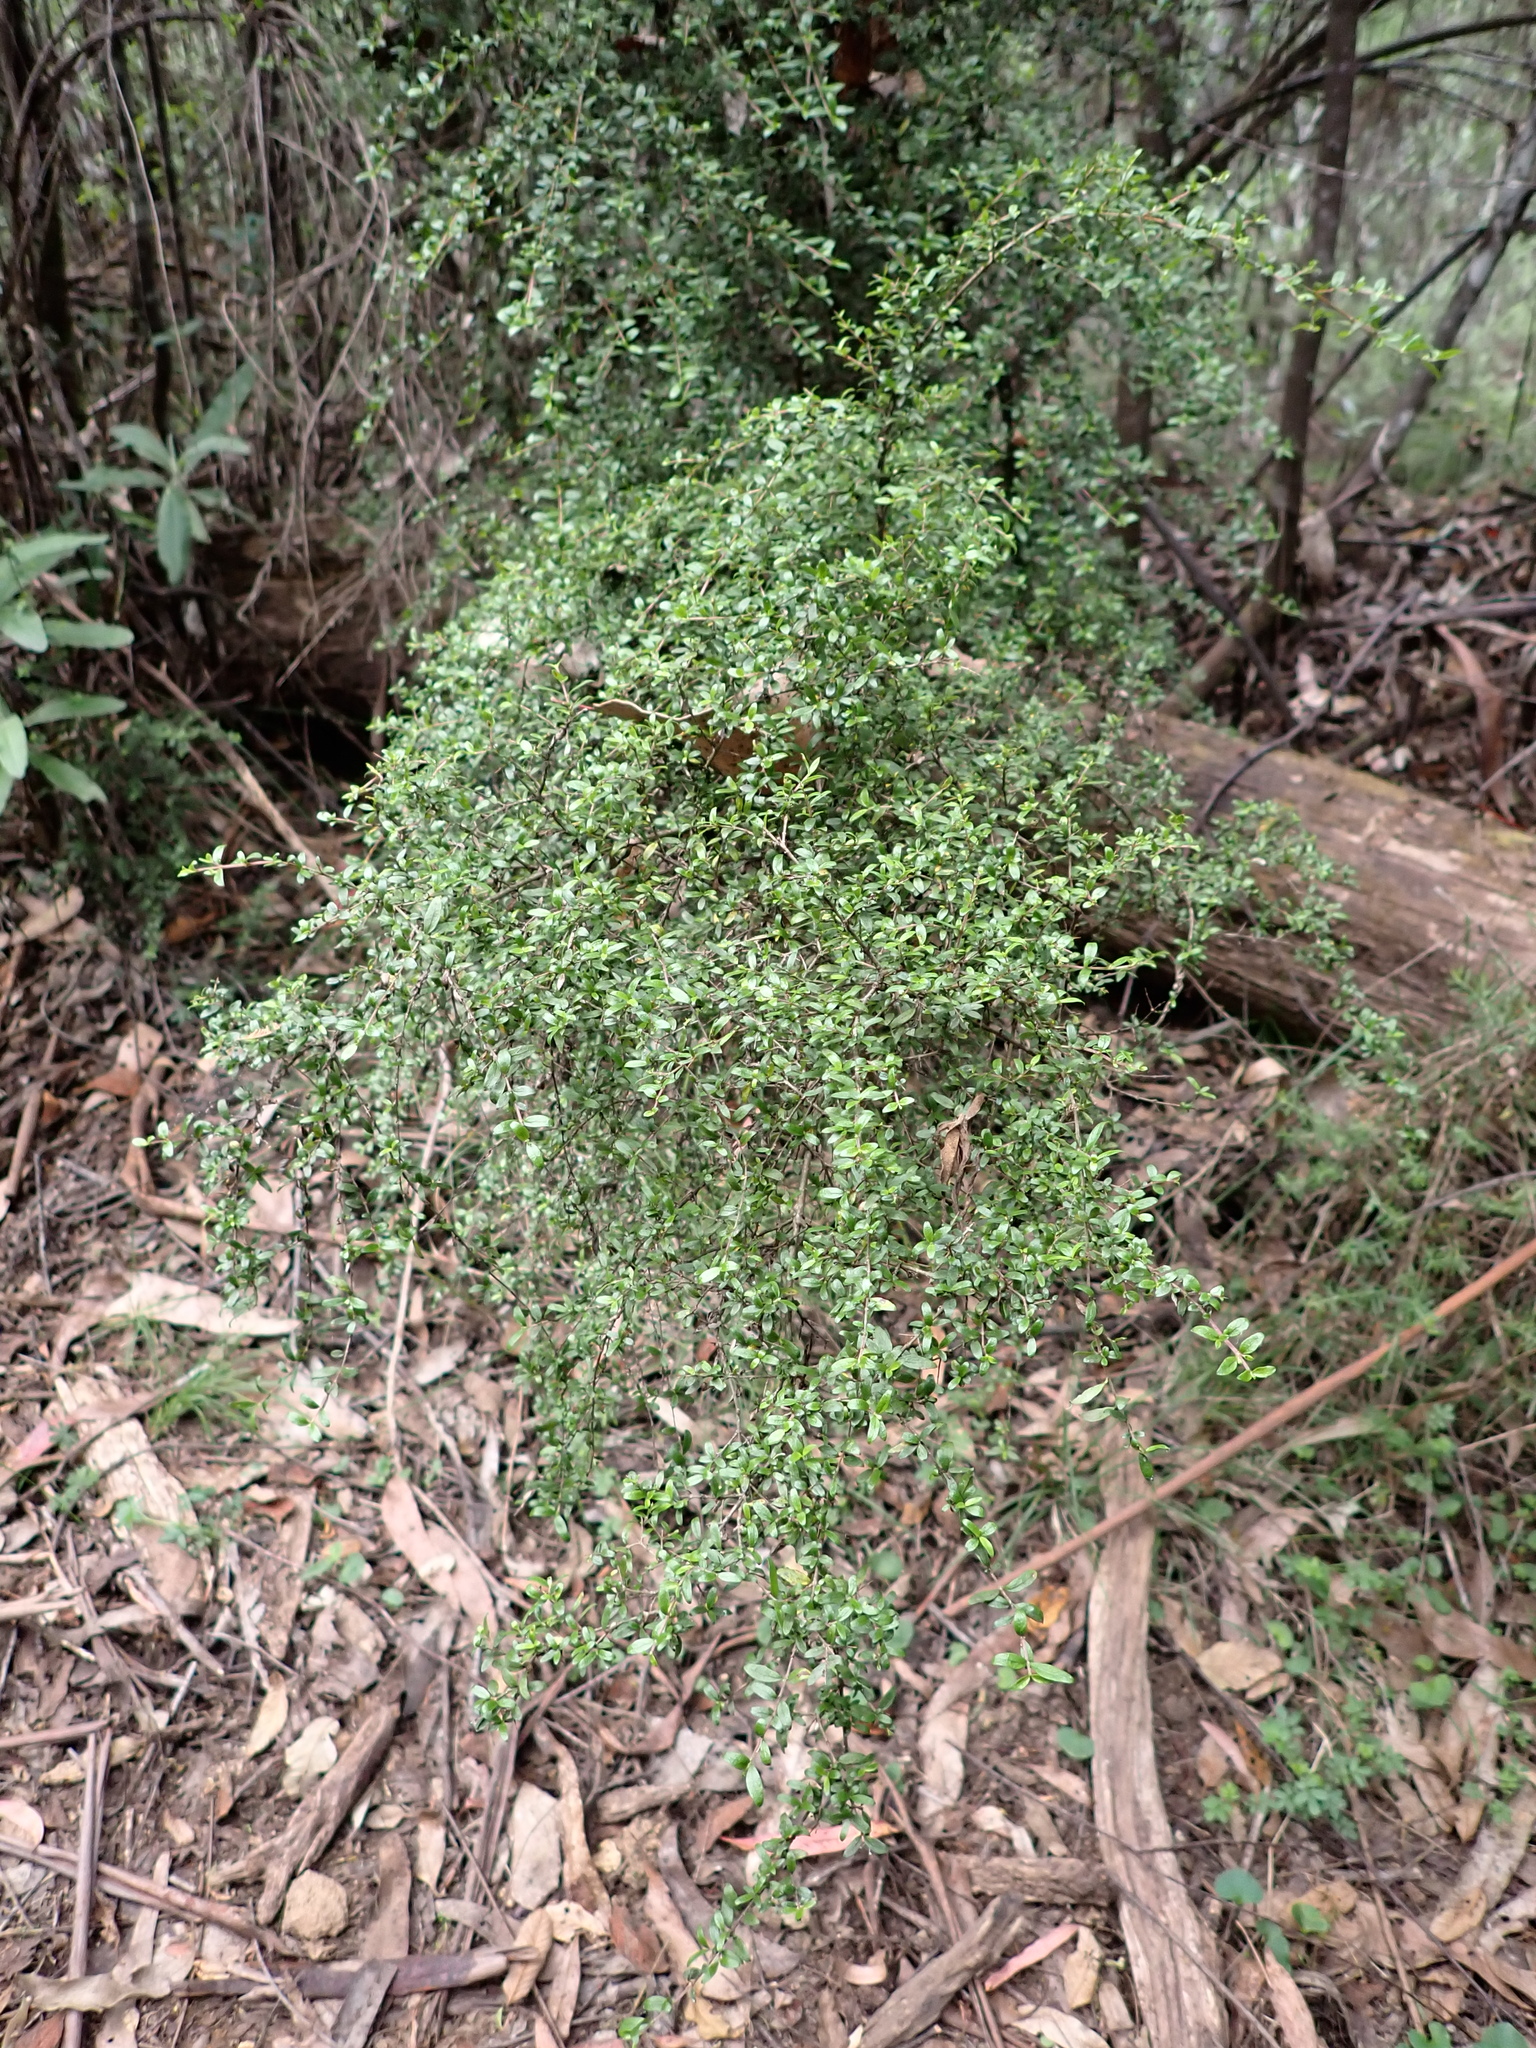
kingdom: Plantae
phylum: Tracheophyta
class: Magnoliopsida
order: Gentianales
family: Rubiaceae
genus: Coprosma
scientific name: Coprosma quadrifida
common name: Prickly currantbush
